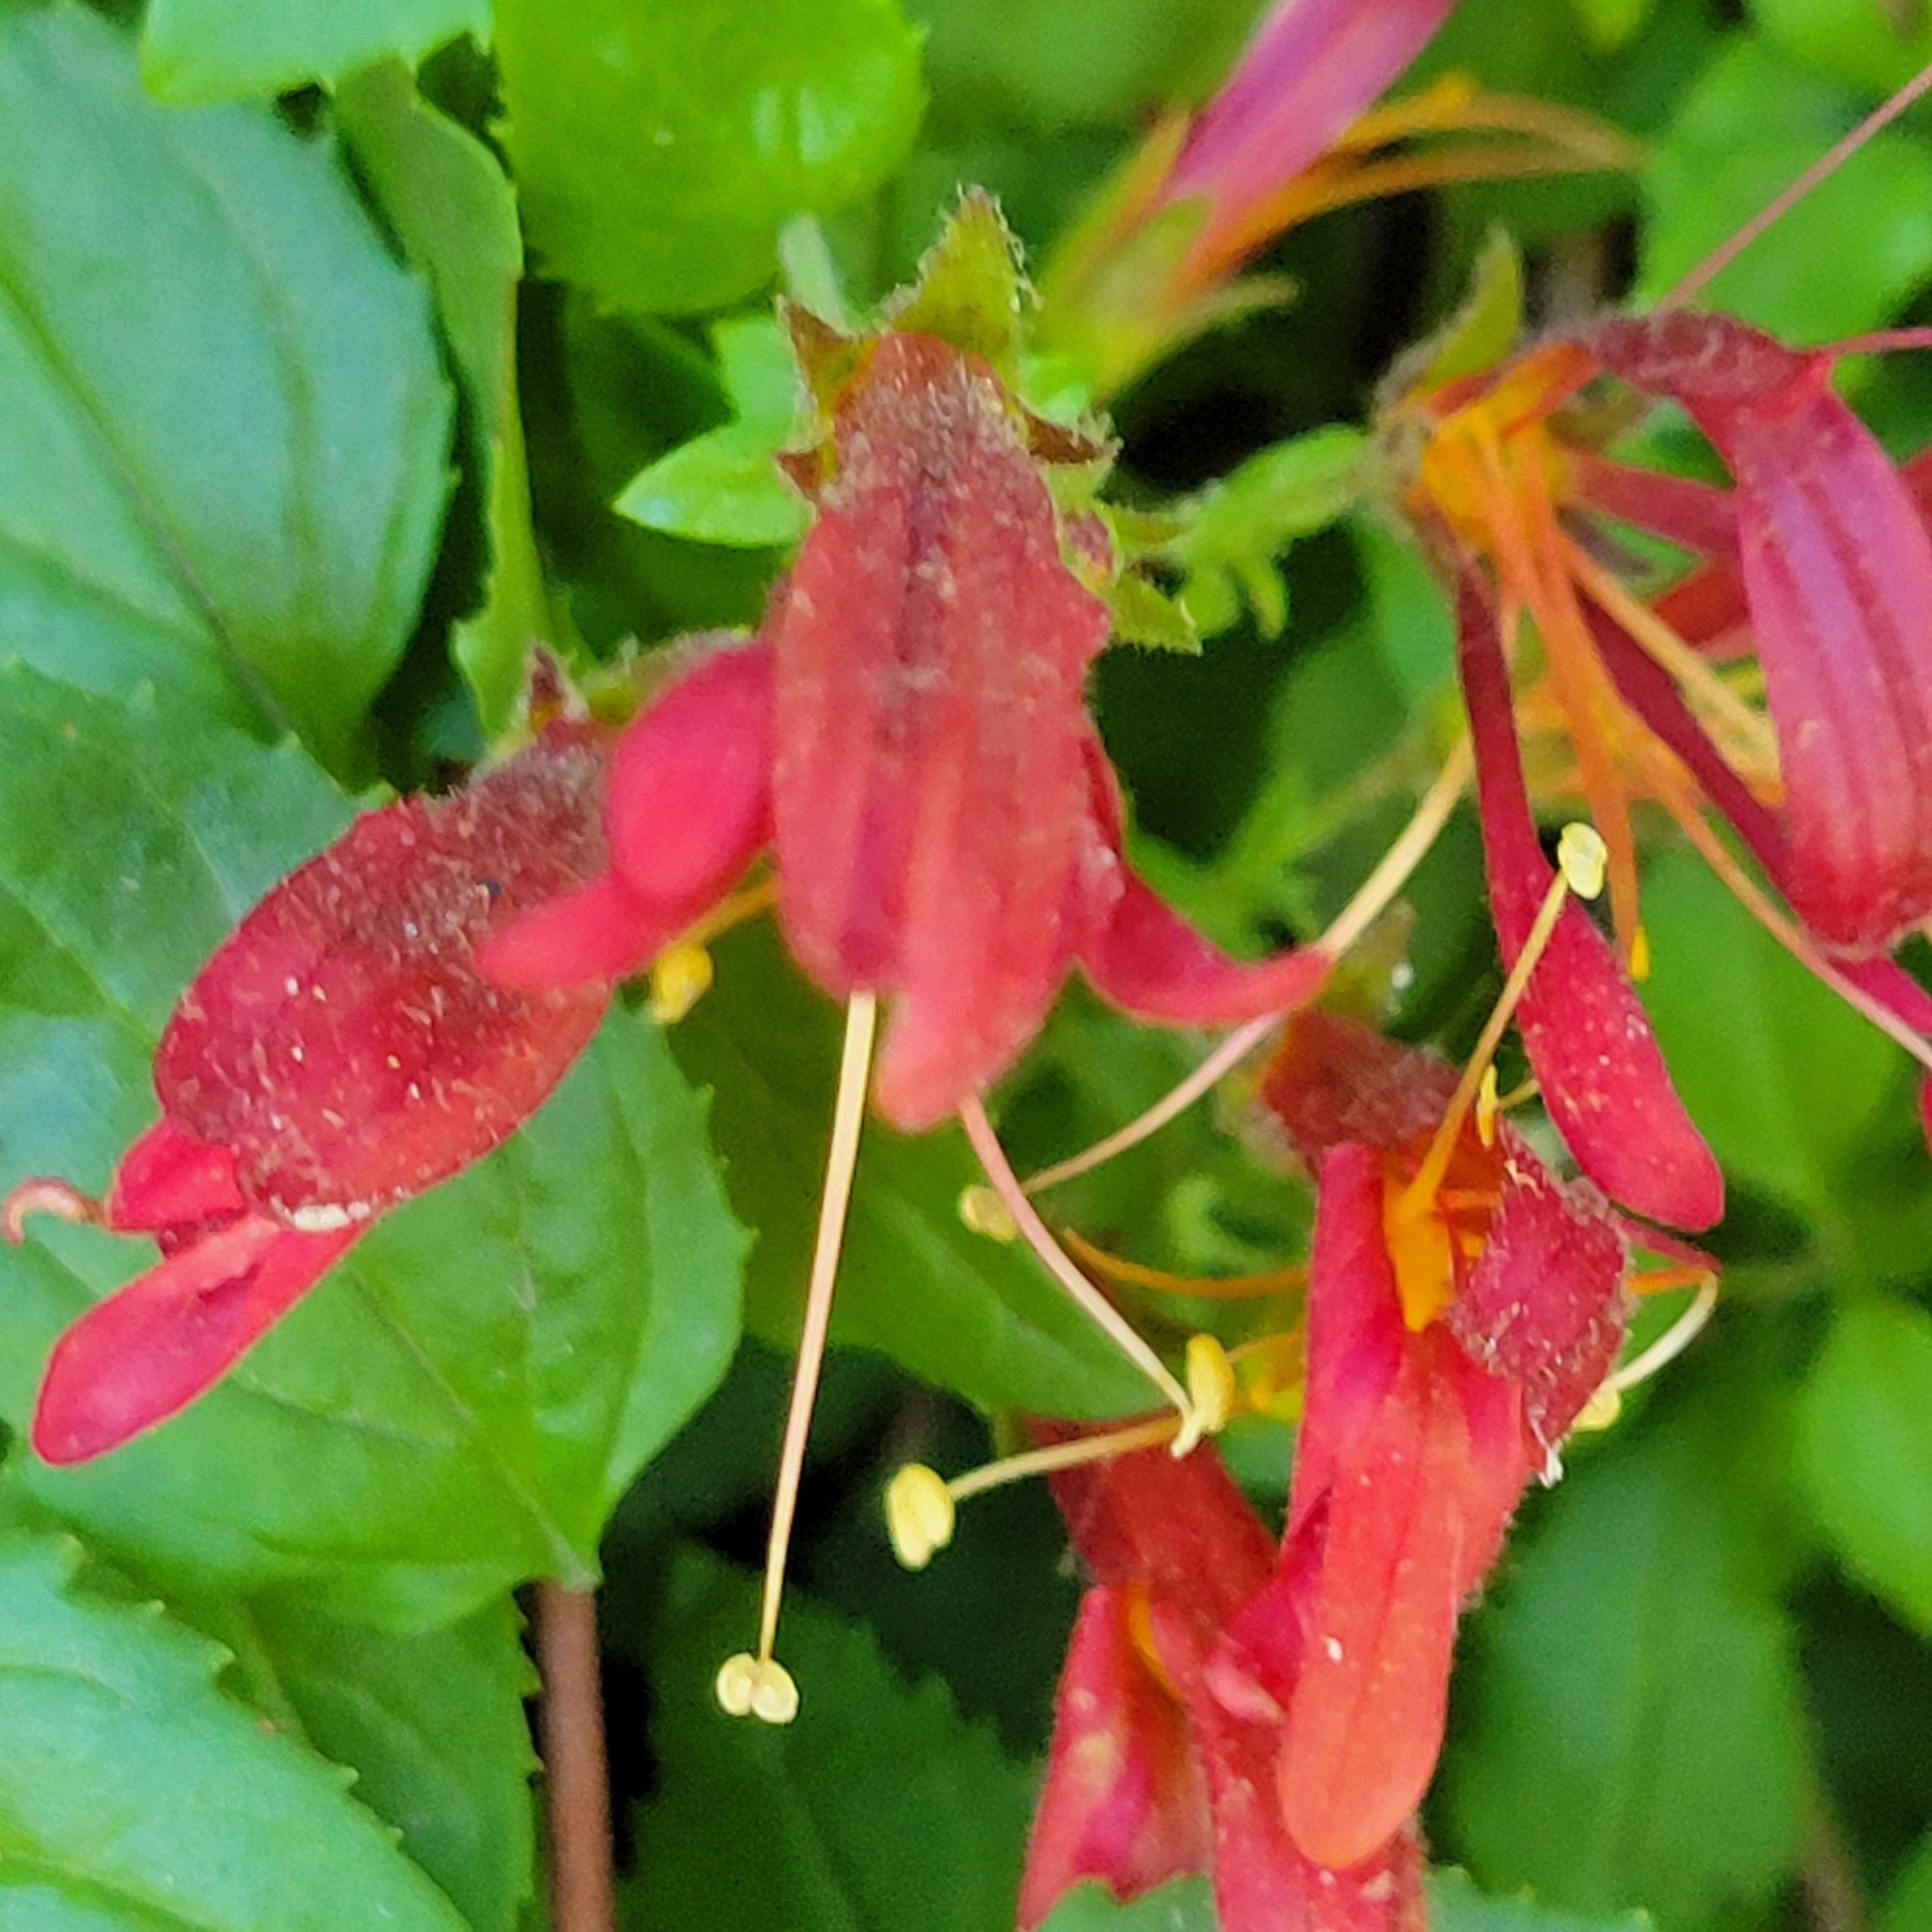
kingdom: Plantae
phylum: Tracheophyta
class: Magnoliopsida
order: Lamiales
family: Plantaginaceae
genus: Keckiella
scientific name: Keckiella cordifolia
